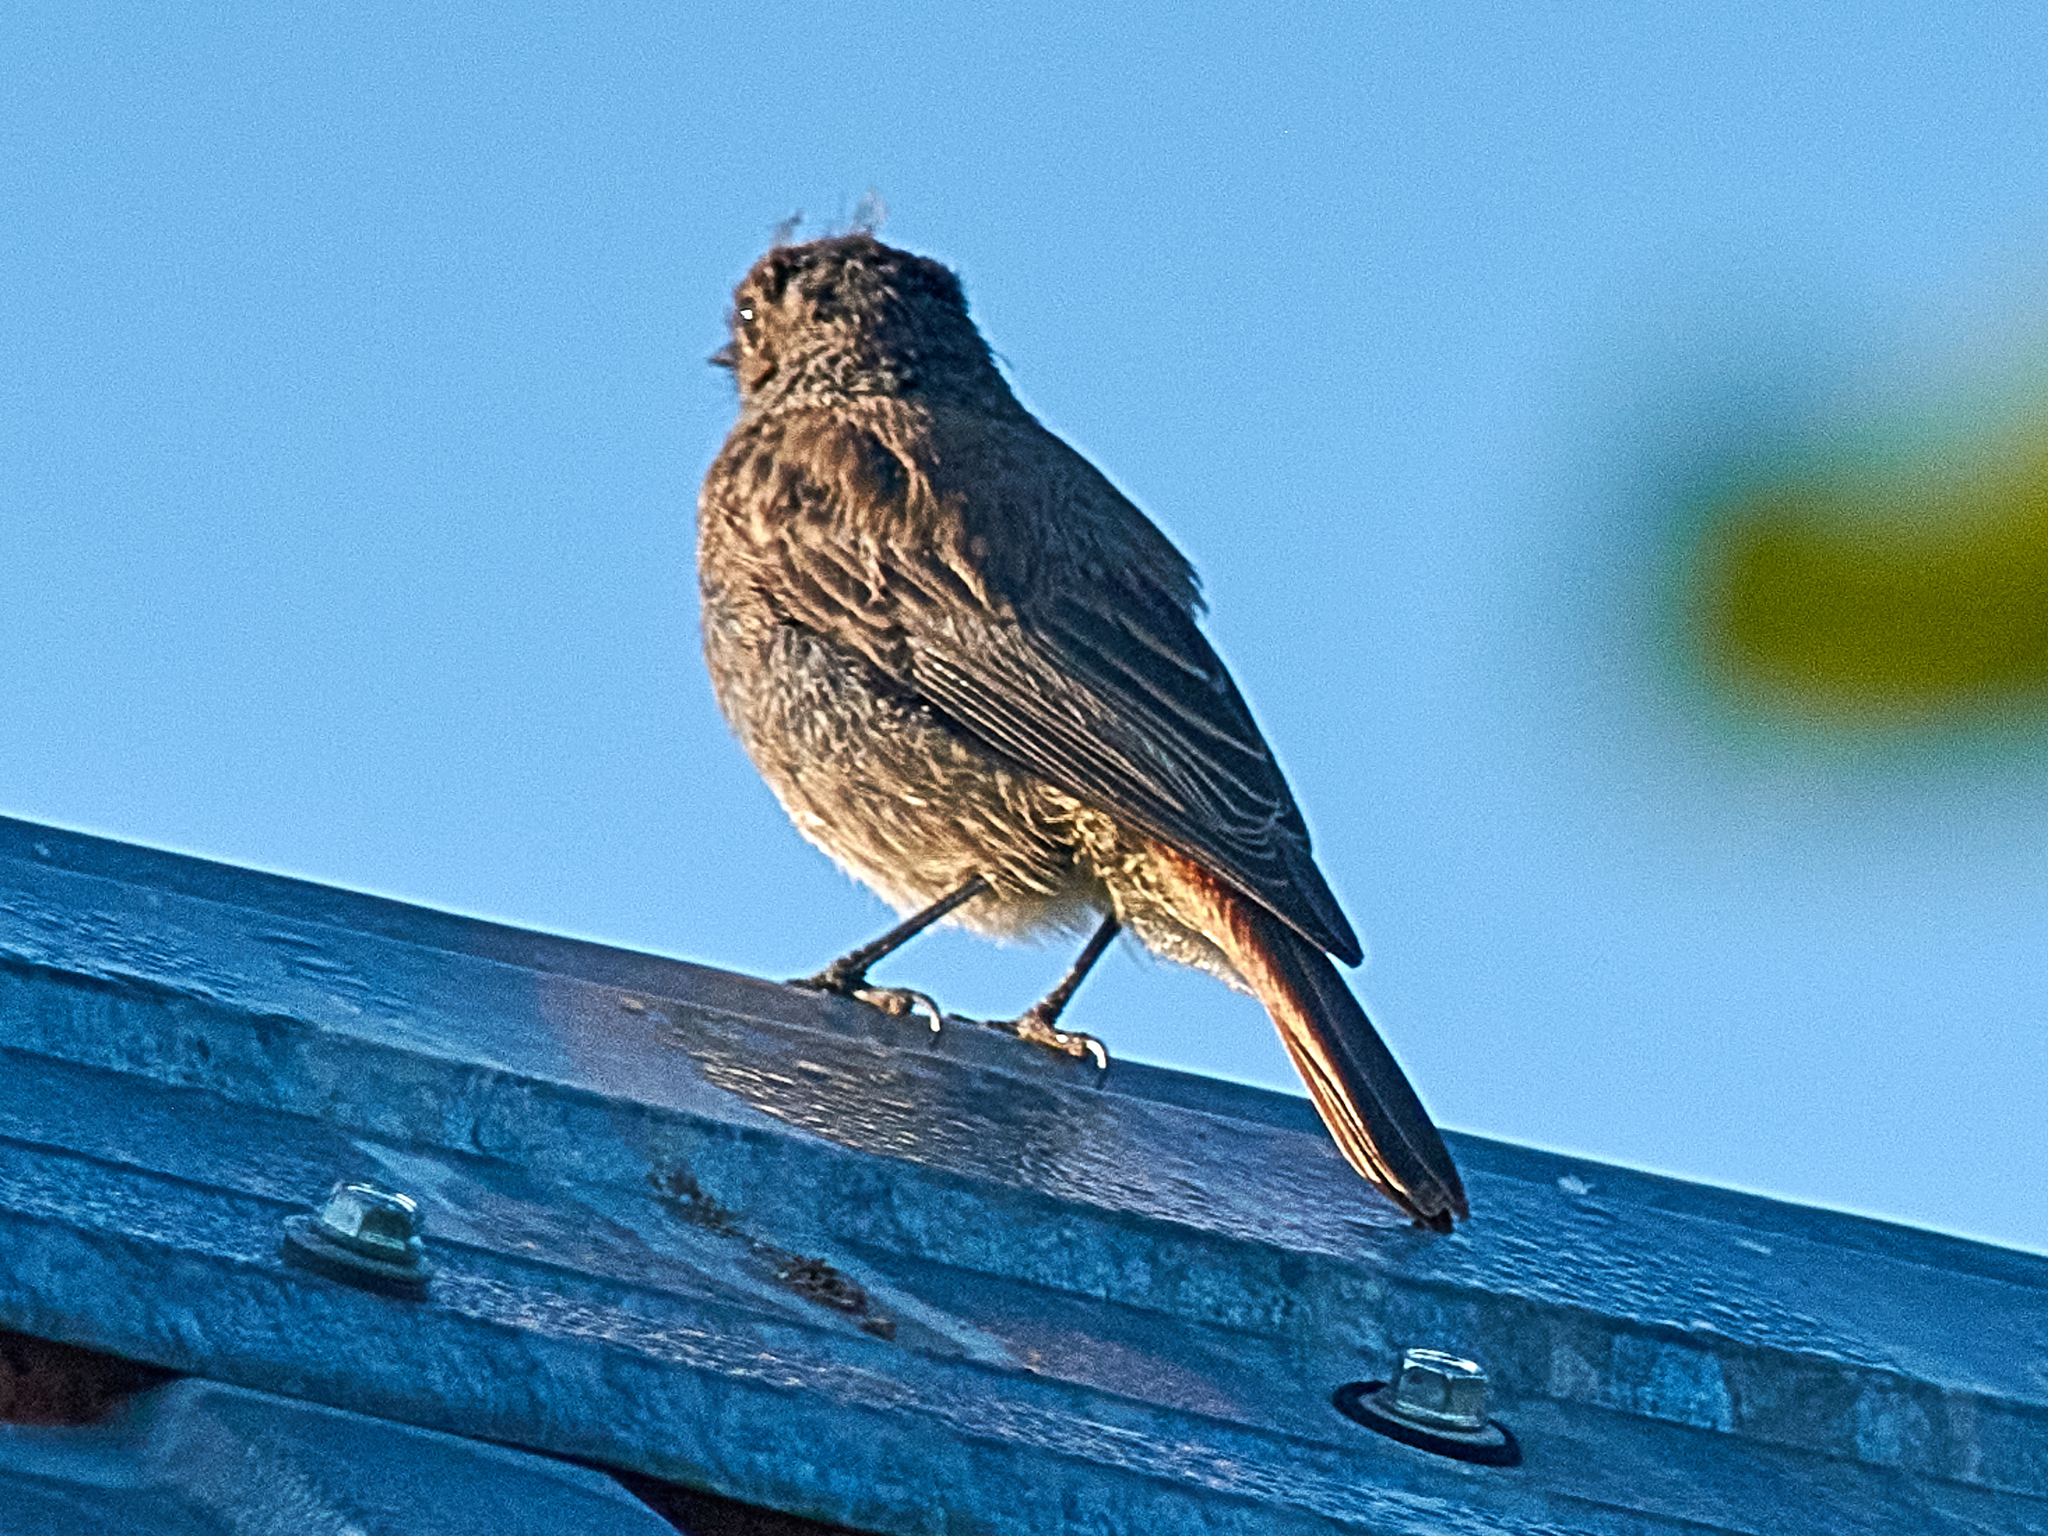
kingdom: Animalia
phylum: Chordata
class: Aves
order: Passeriformes
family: Muscicapidae
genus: Phoenicurus
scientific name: Phoenicurus ochruros
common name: Black redstart
